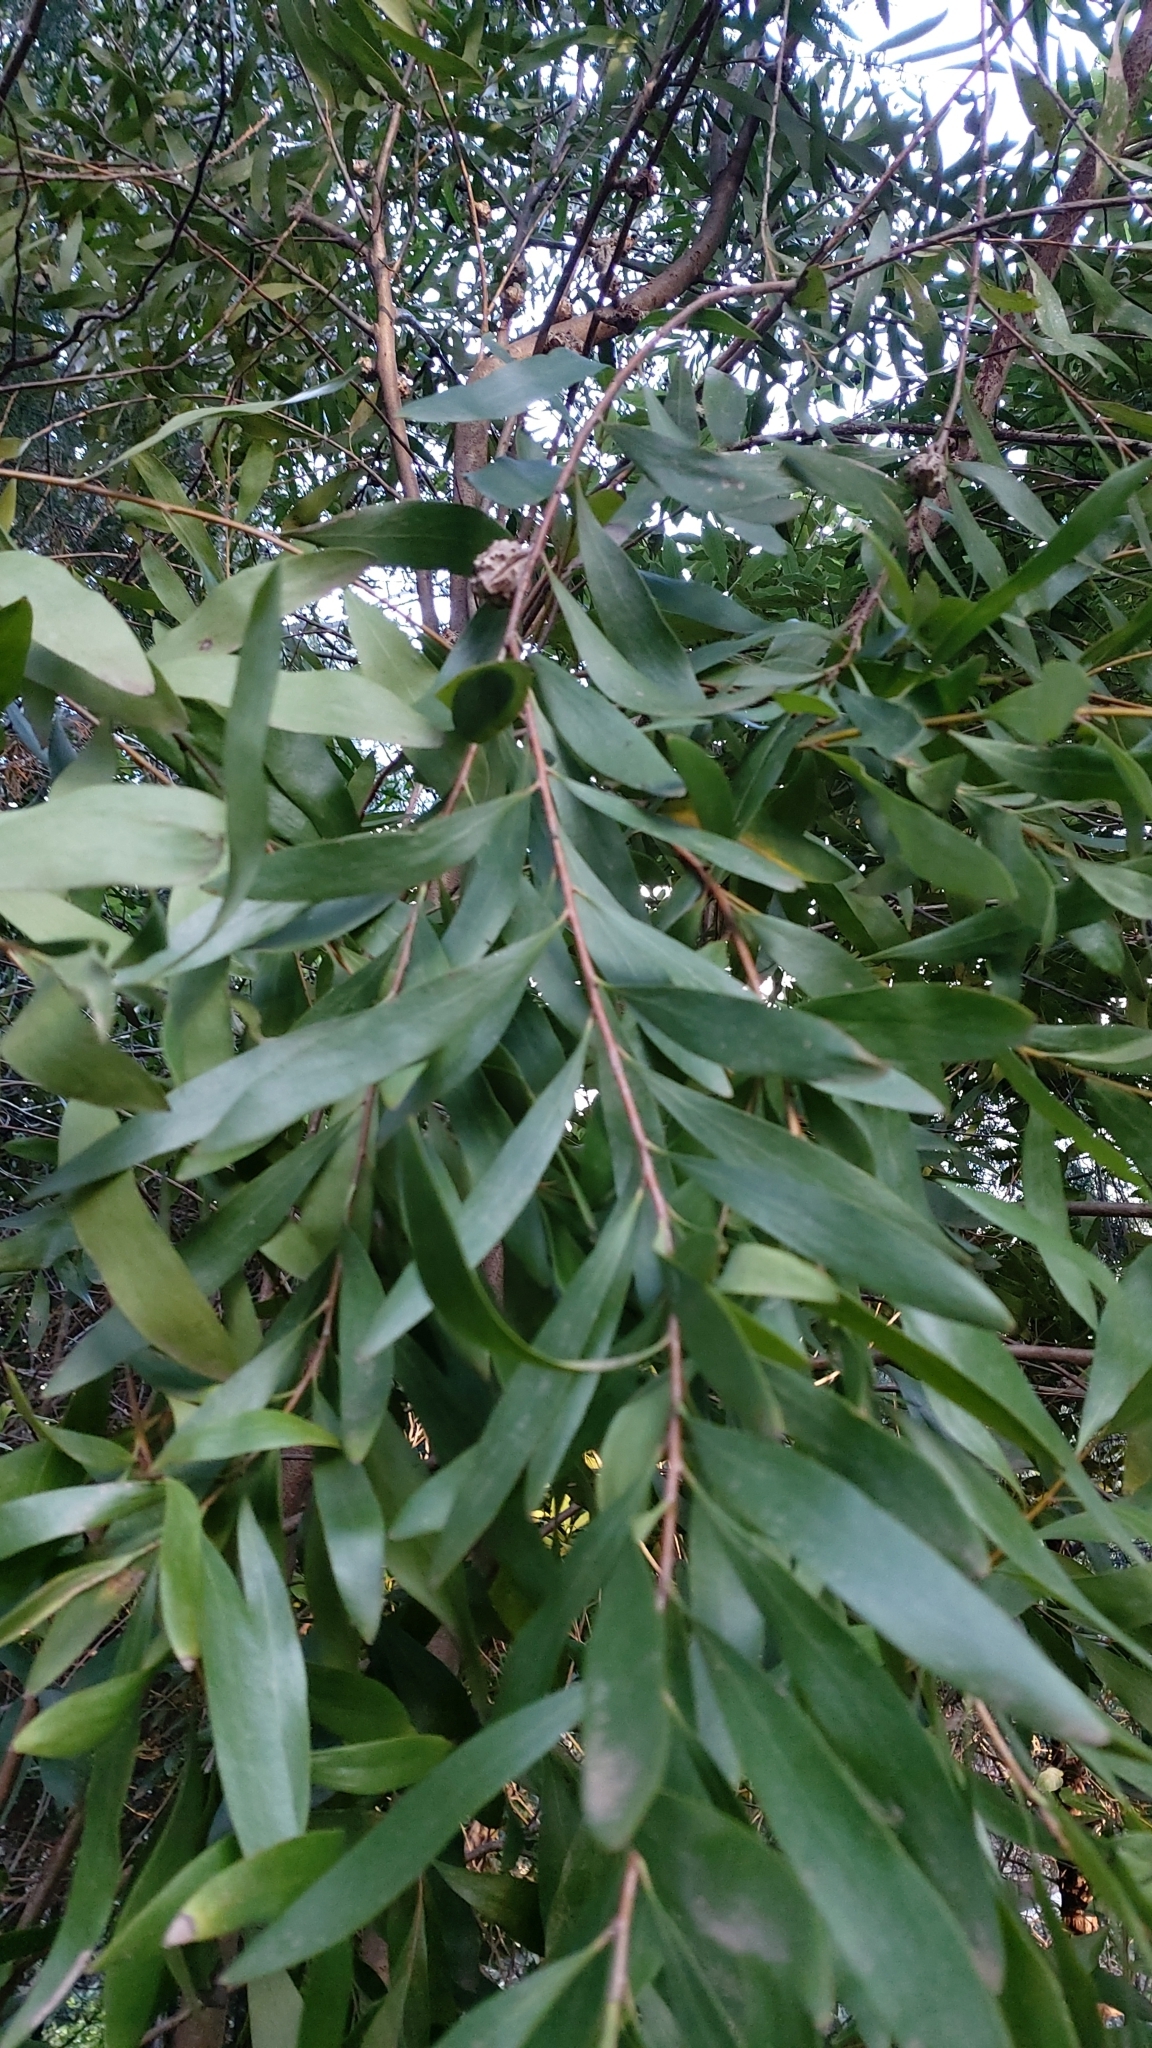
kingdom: Plantae
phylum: Tracheophyta
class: Magnoliopsida
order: Proteales
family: Proteaceae
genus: Hakea
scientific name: Hakea salicifolia
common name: Willow hakea
